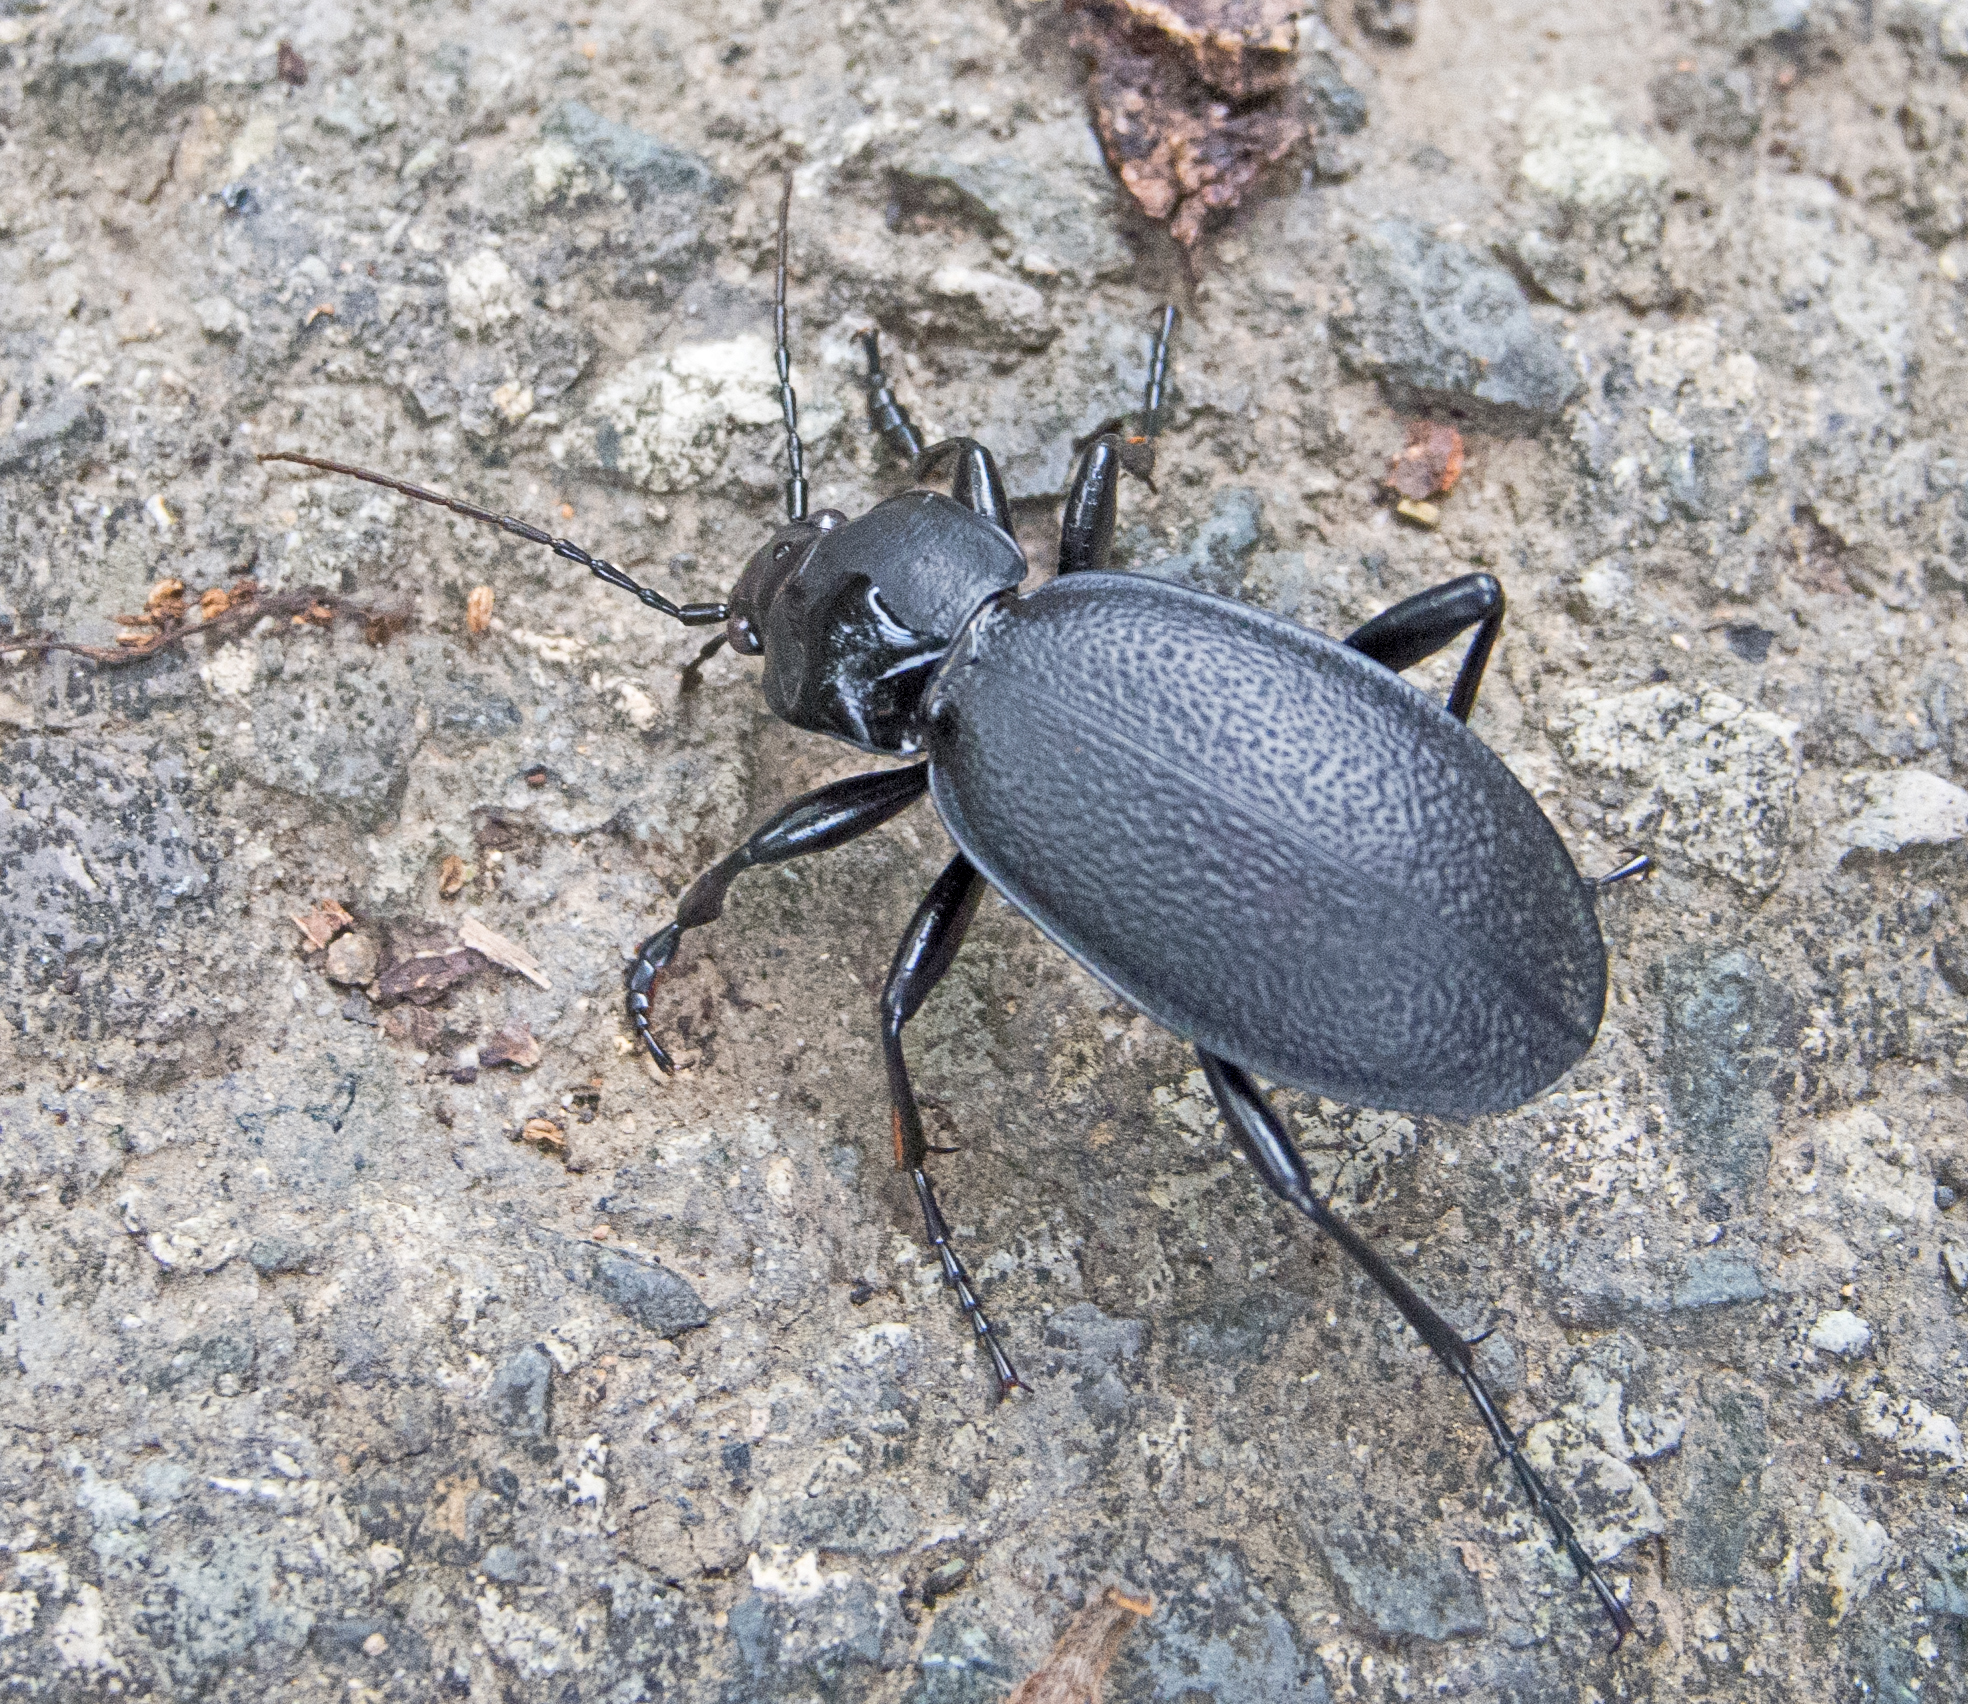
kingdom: Animalia
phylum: Arthropoda
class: Insecta
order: Coleoptera
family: Carabidae
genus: Carabus
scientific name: Carabus coriaceus
